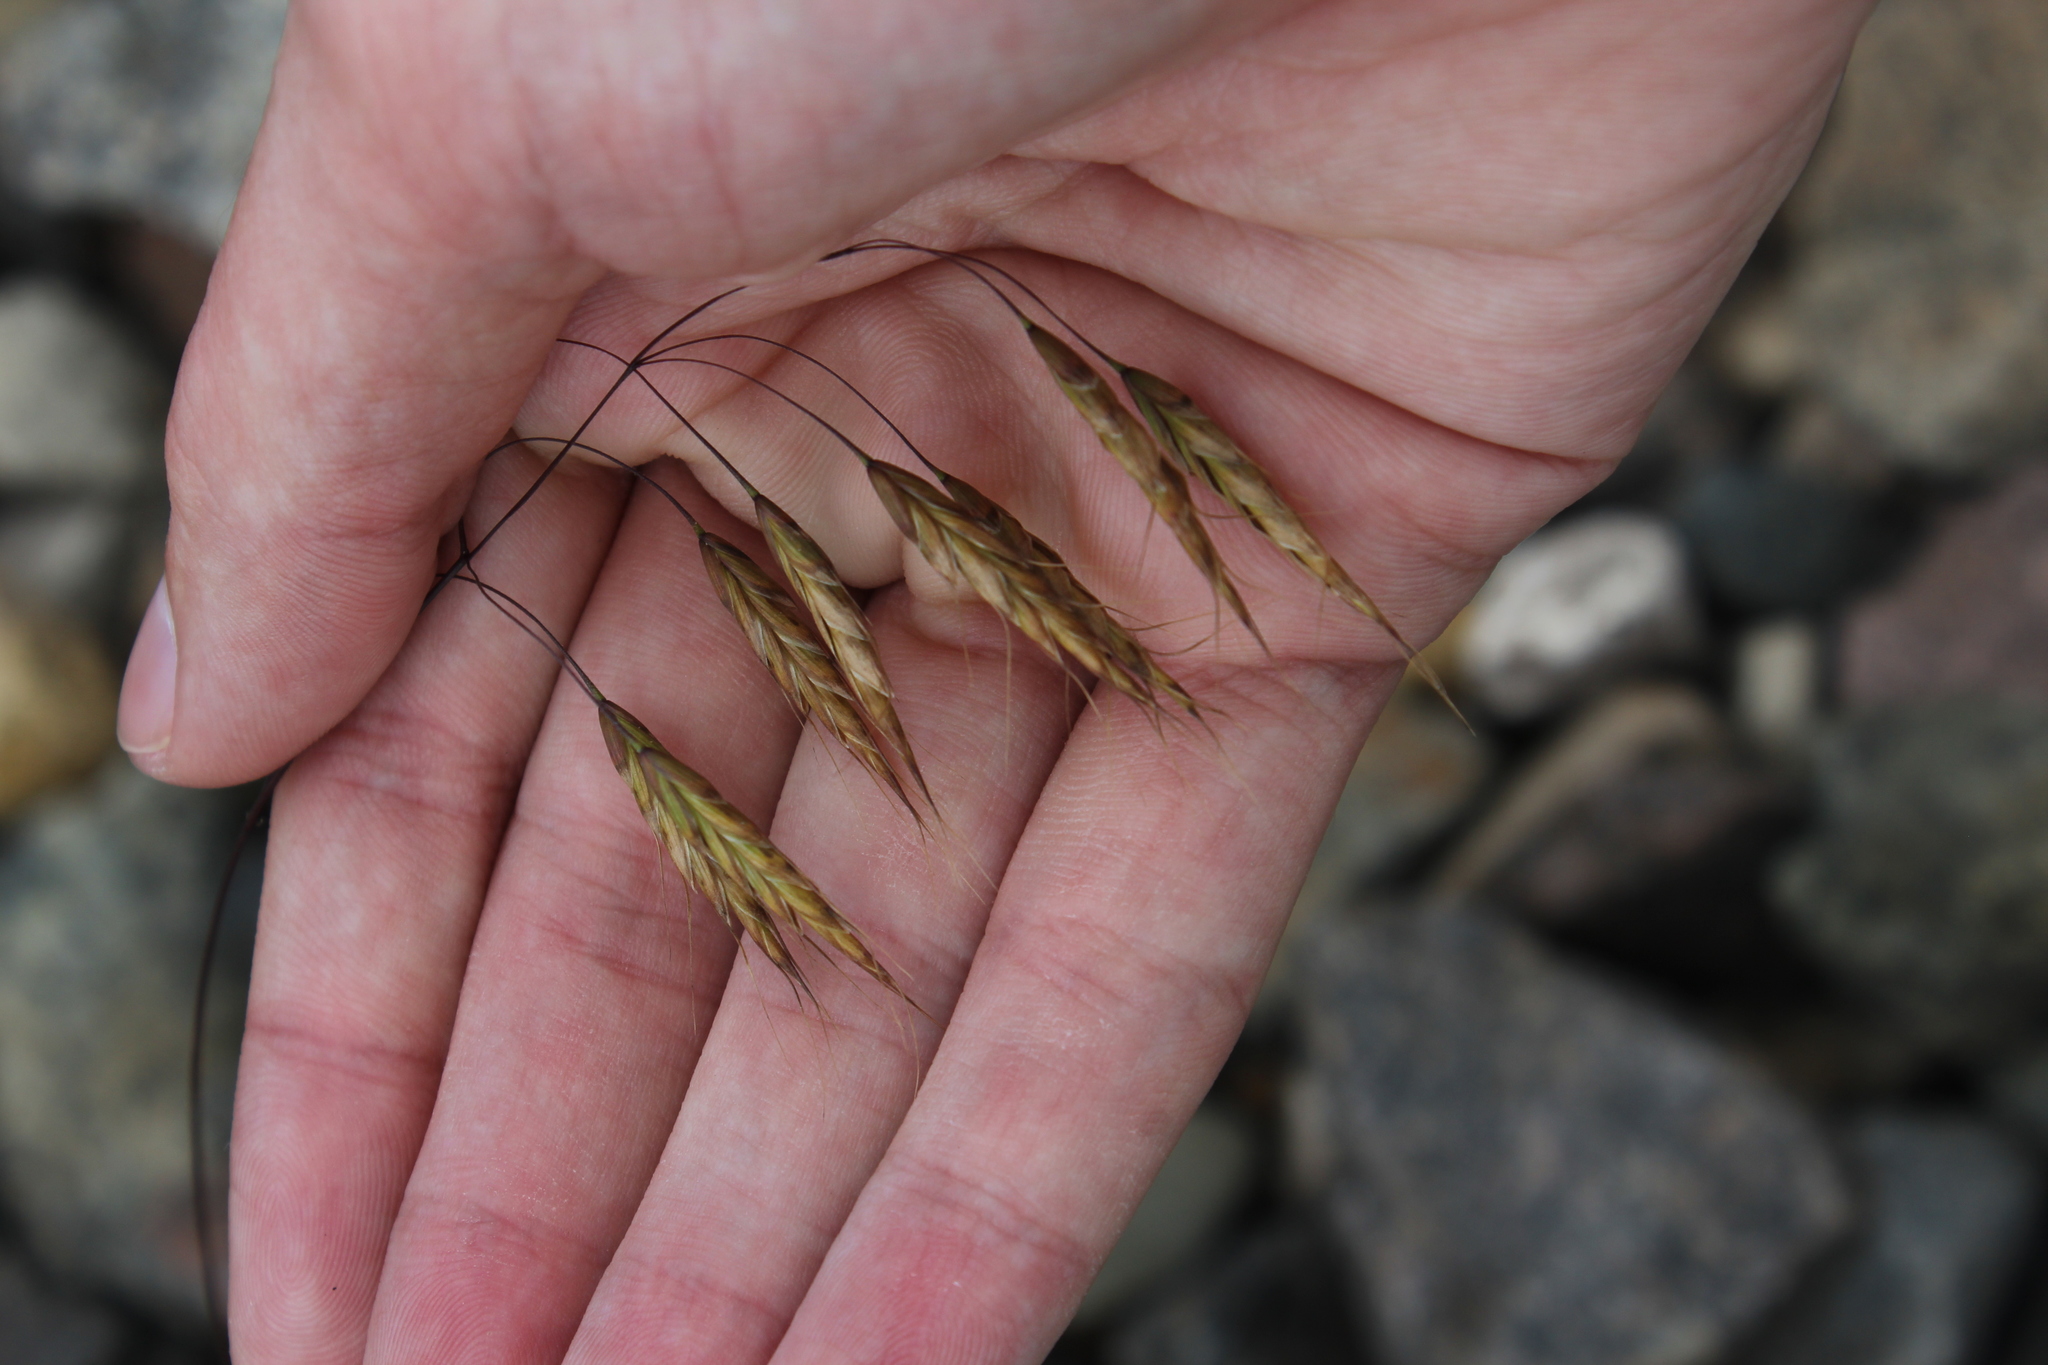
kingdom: Plantae
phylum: Tracheophyta
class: Liliopsida
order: Poales
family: Poaceae
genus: Bromus
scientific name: Bromus japonicus
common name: Japanese brome
